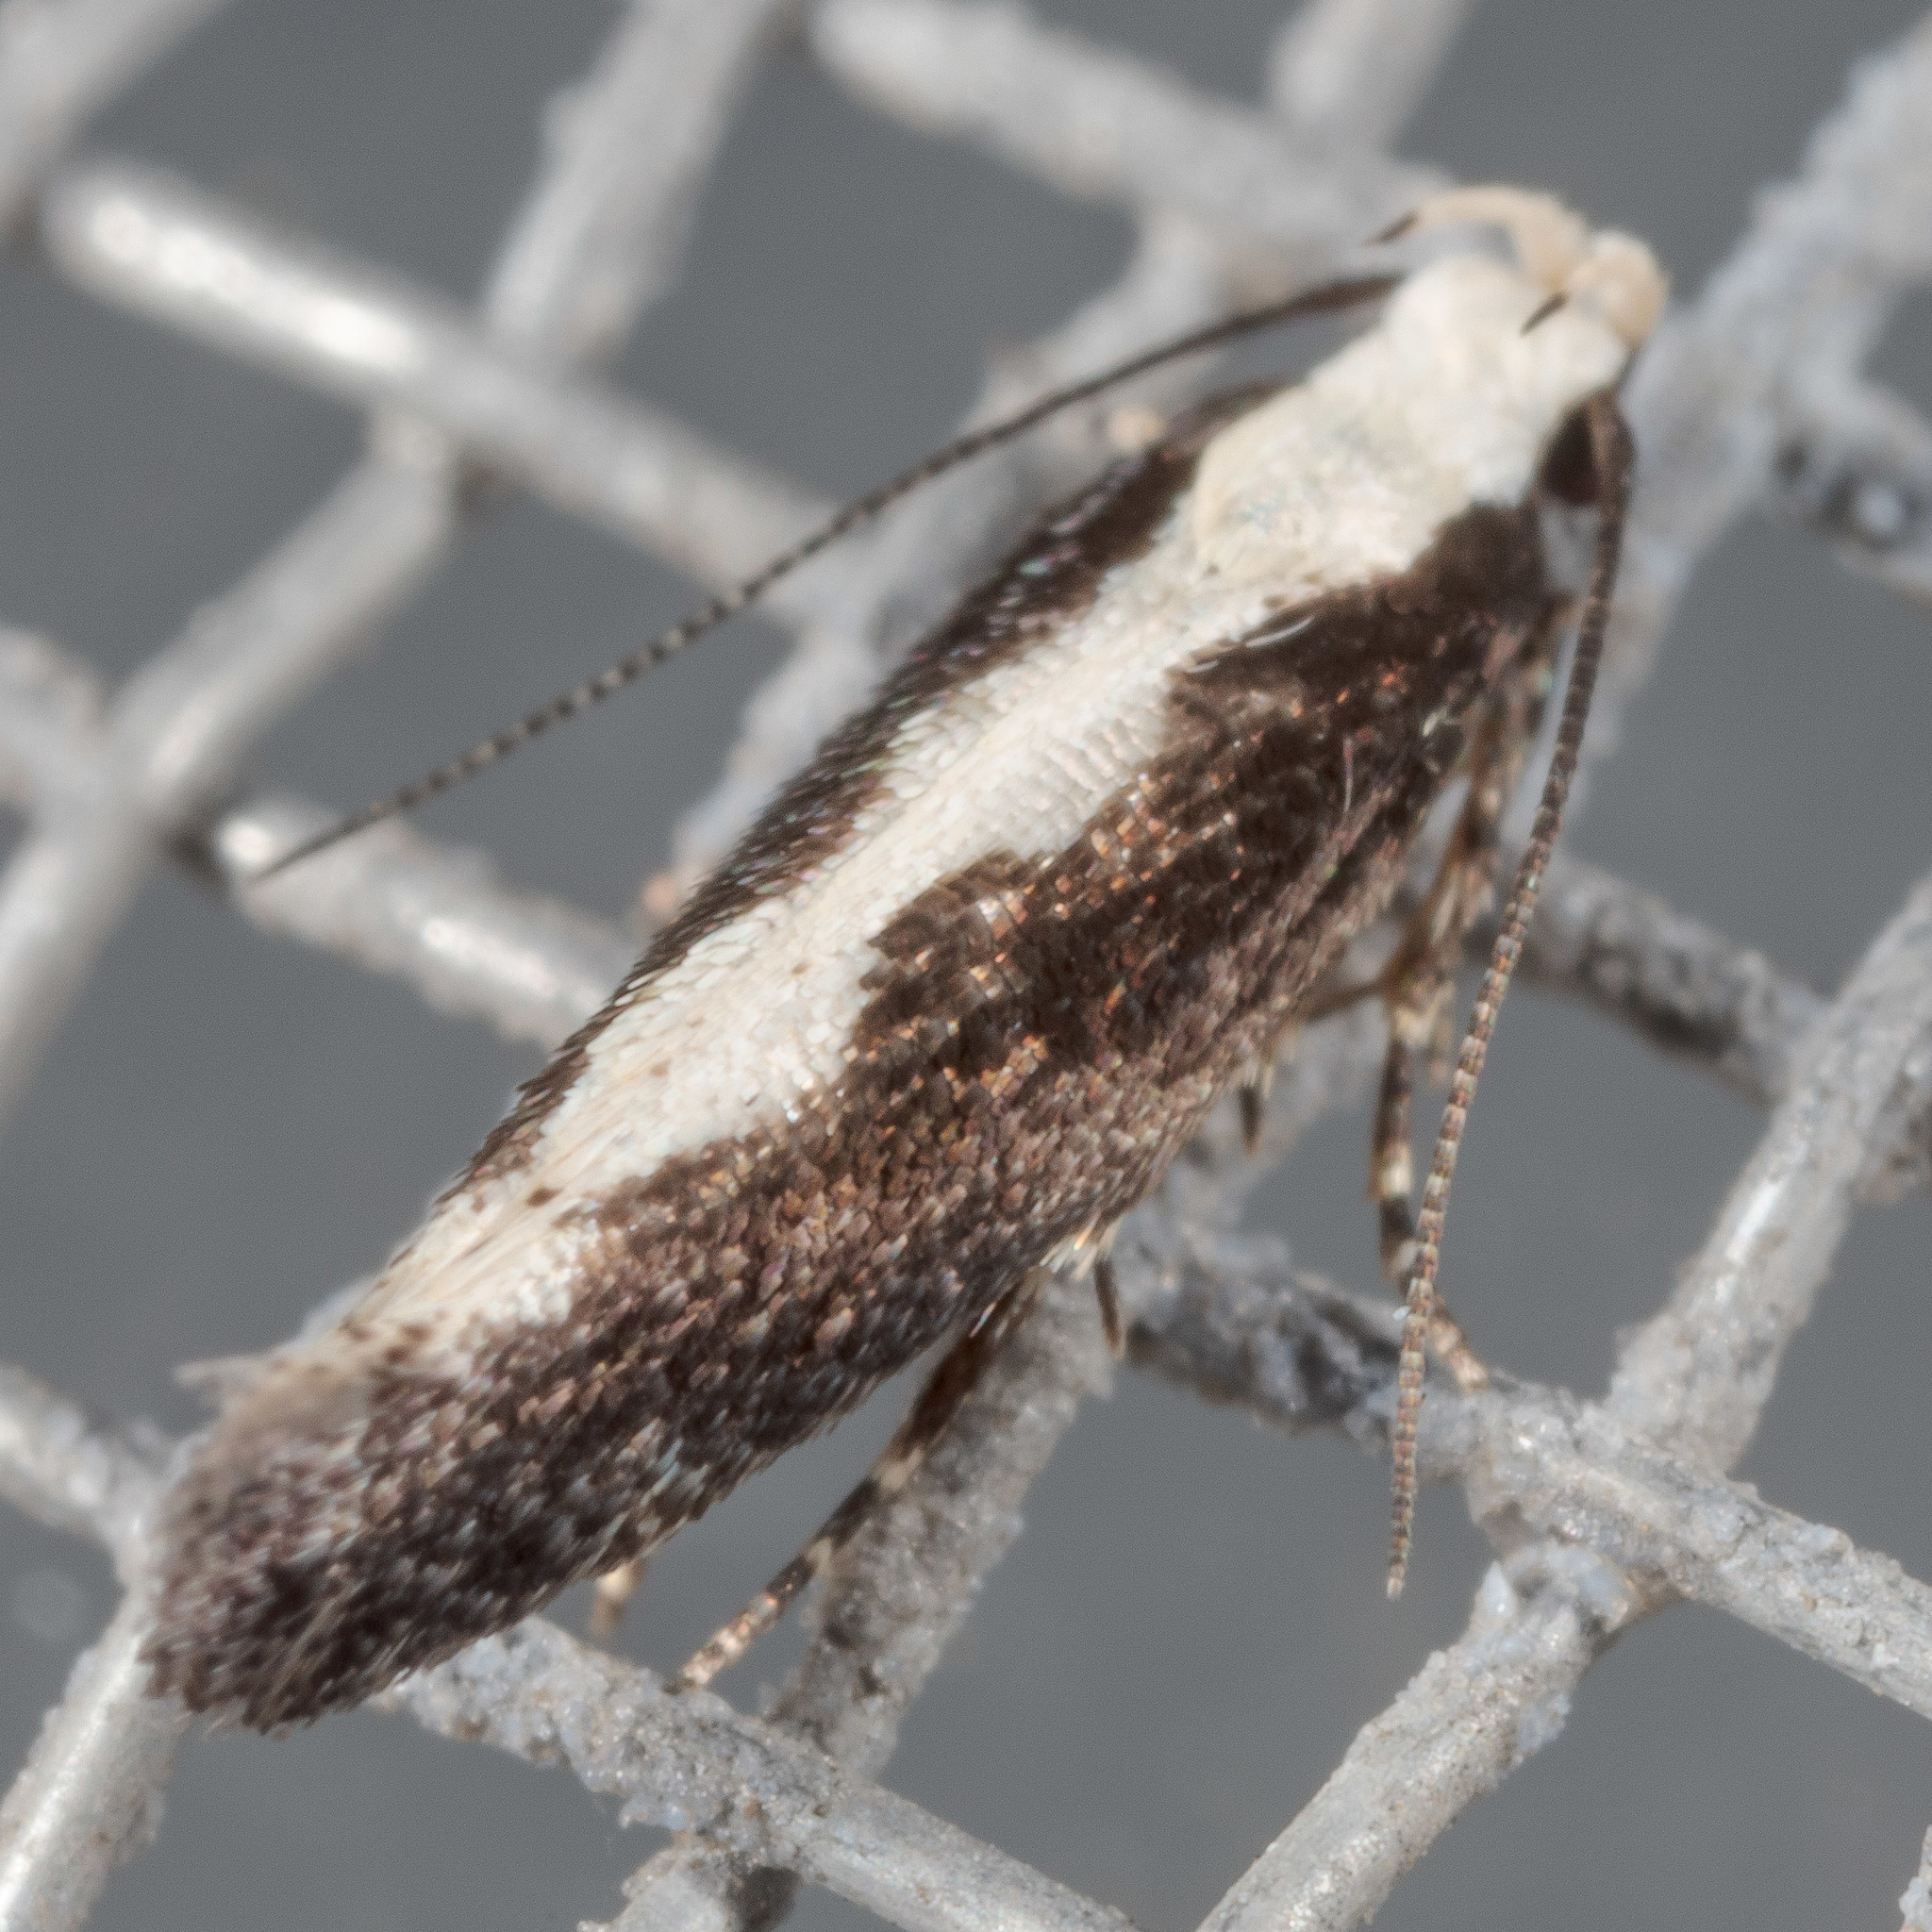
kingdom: Animalia
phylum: Arthropoda
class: Insecta
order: Lepidoptera
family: Gelechiidae
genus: Agnippe
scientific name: Agnippe prunifoliella
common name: Skunk twirler
